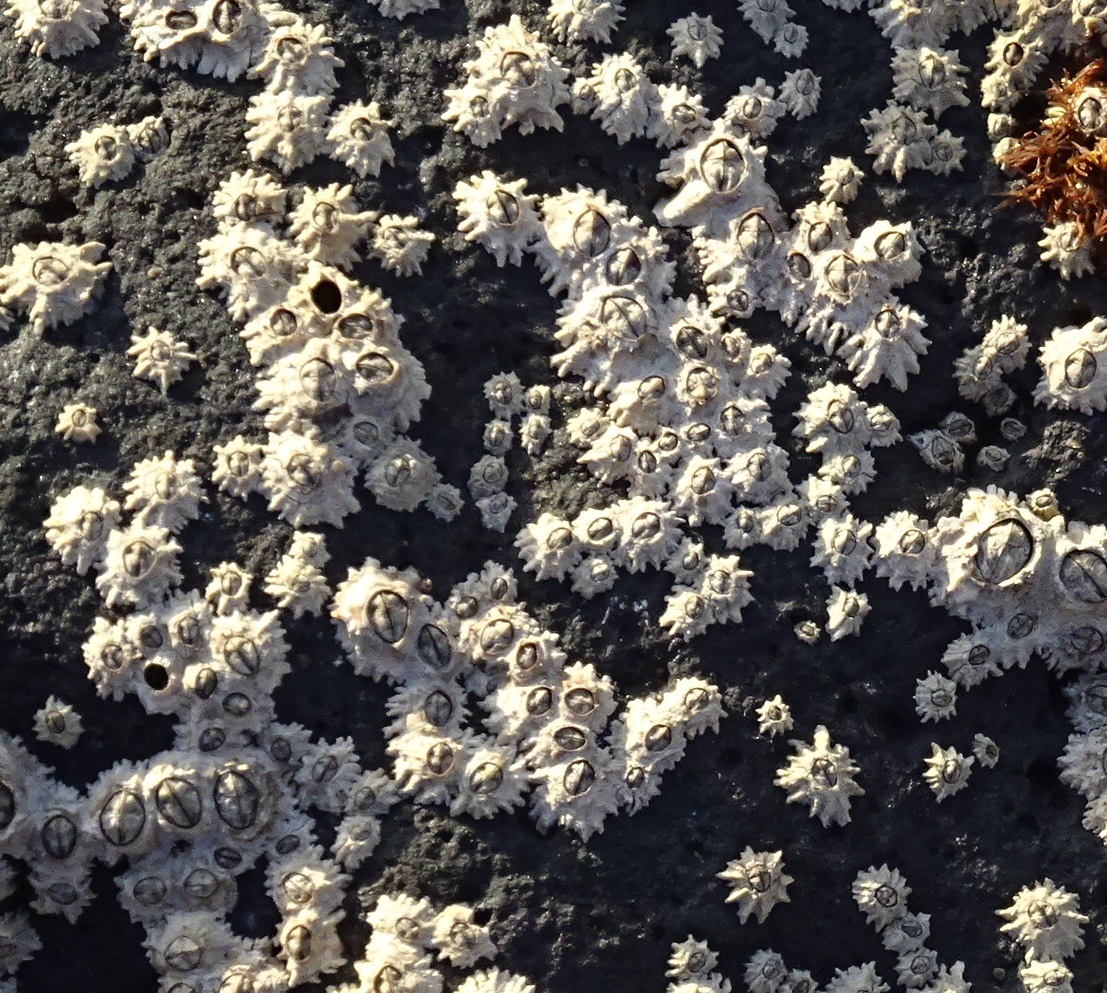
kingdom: Animalia
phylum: Arthropoda
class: Maxillopoda
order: Sessilia
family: Chthamalidae
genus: Chthamalus
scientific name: Chthamalus stellatus
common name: Poli's stellate barnacle
